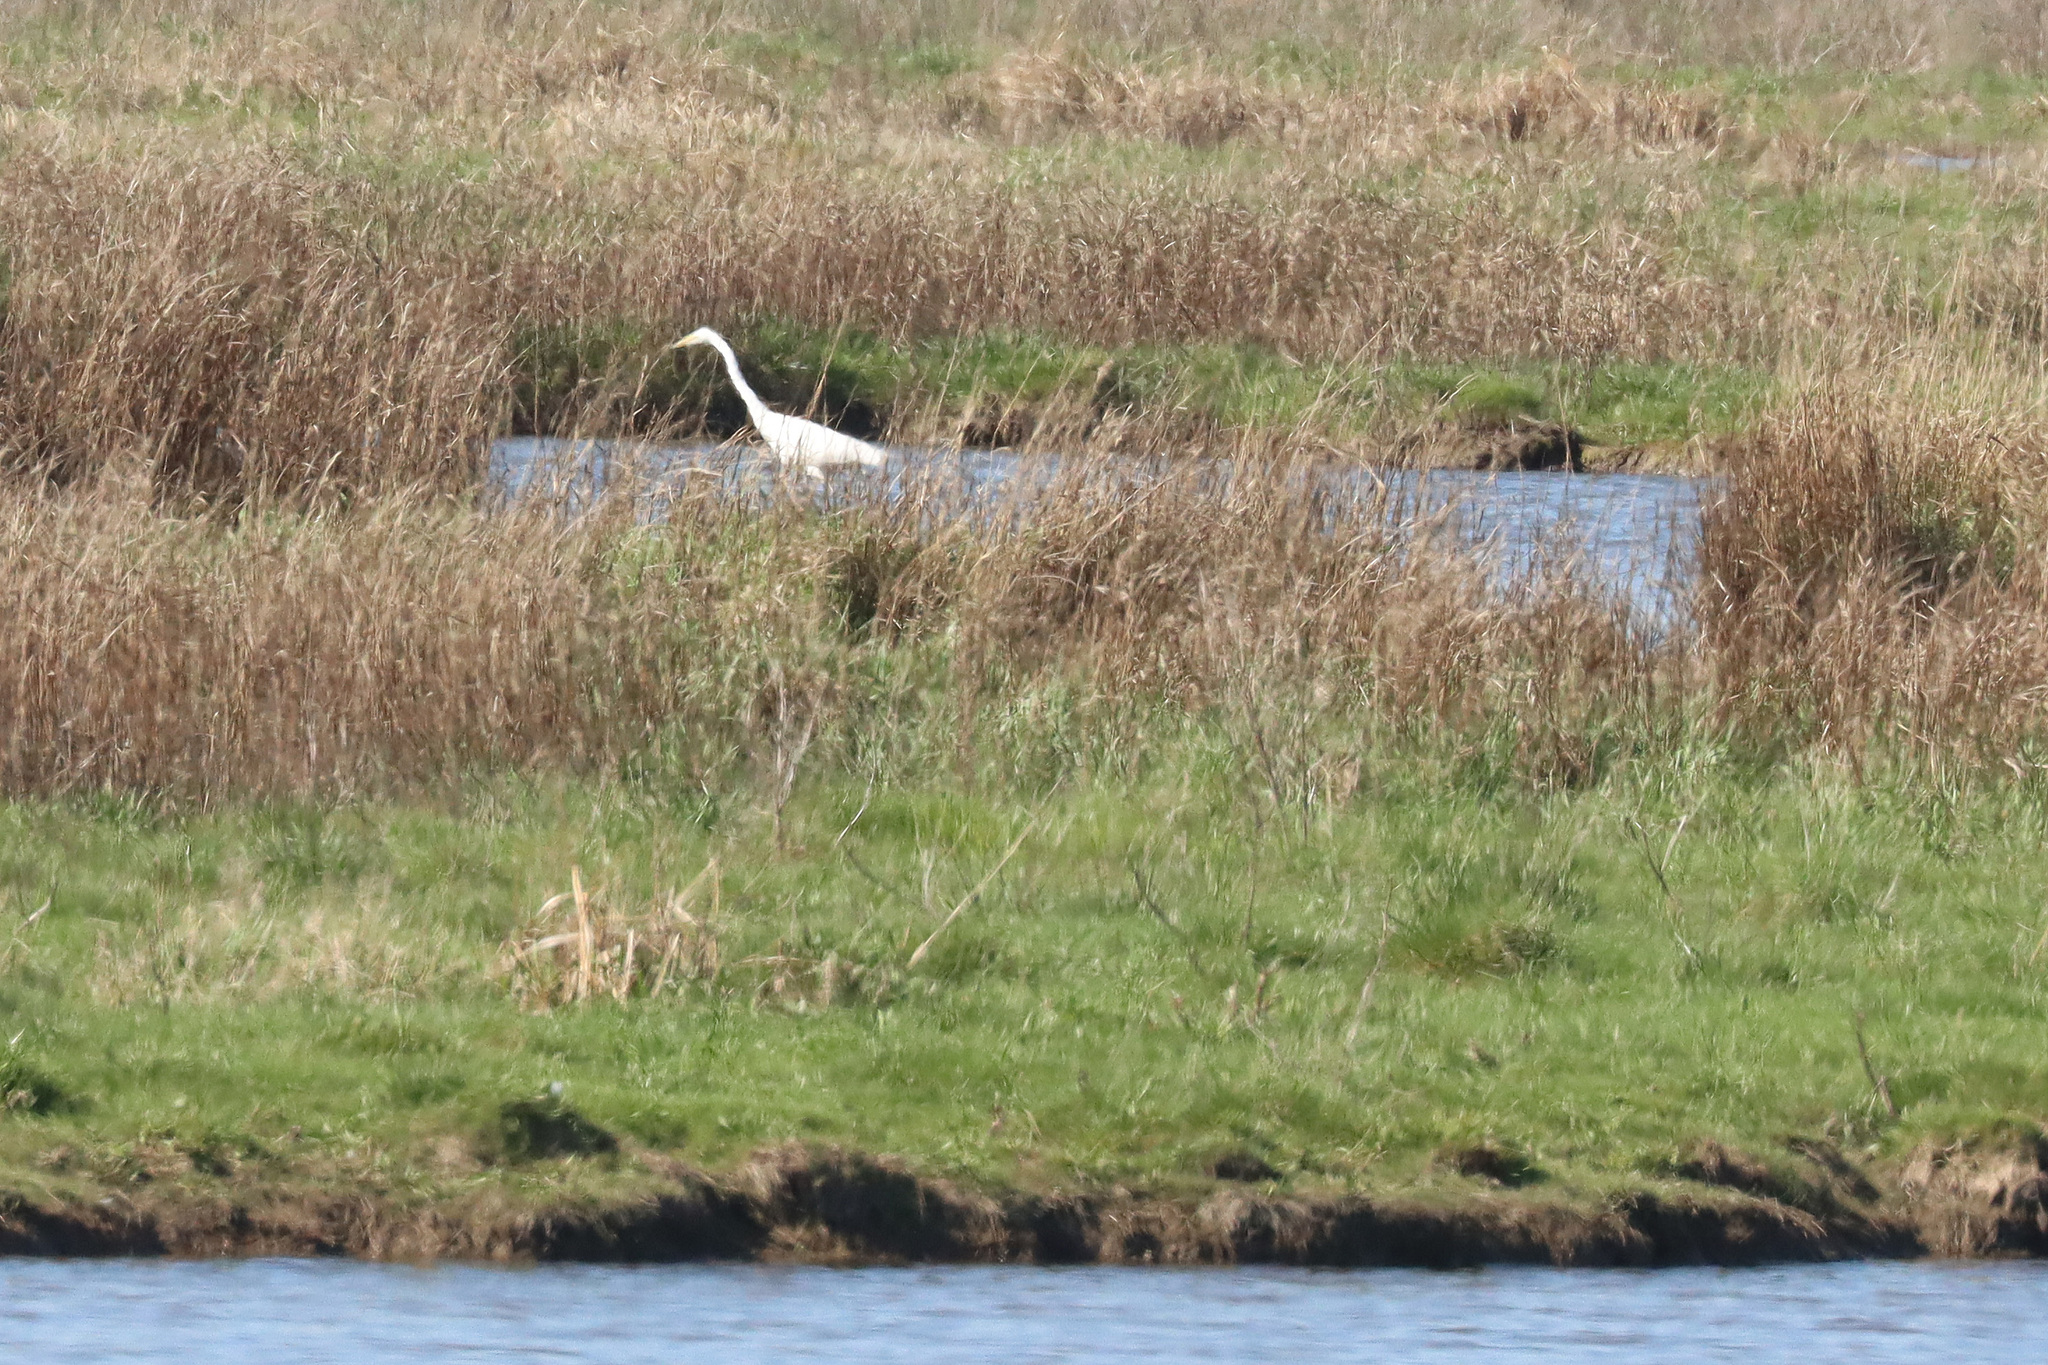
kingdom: Animalia
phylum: Chordata
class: Aves
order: Pelecaniformes
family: Ardeidae
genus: Ardea
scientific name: Ardea alba
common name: Great egret
